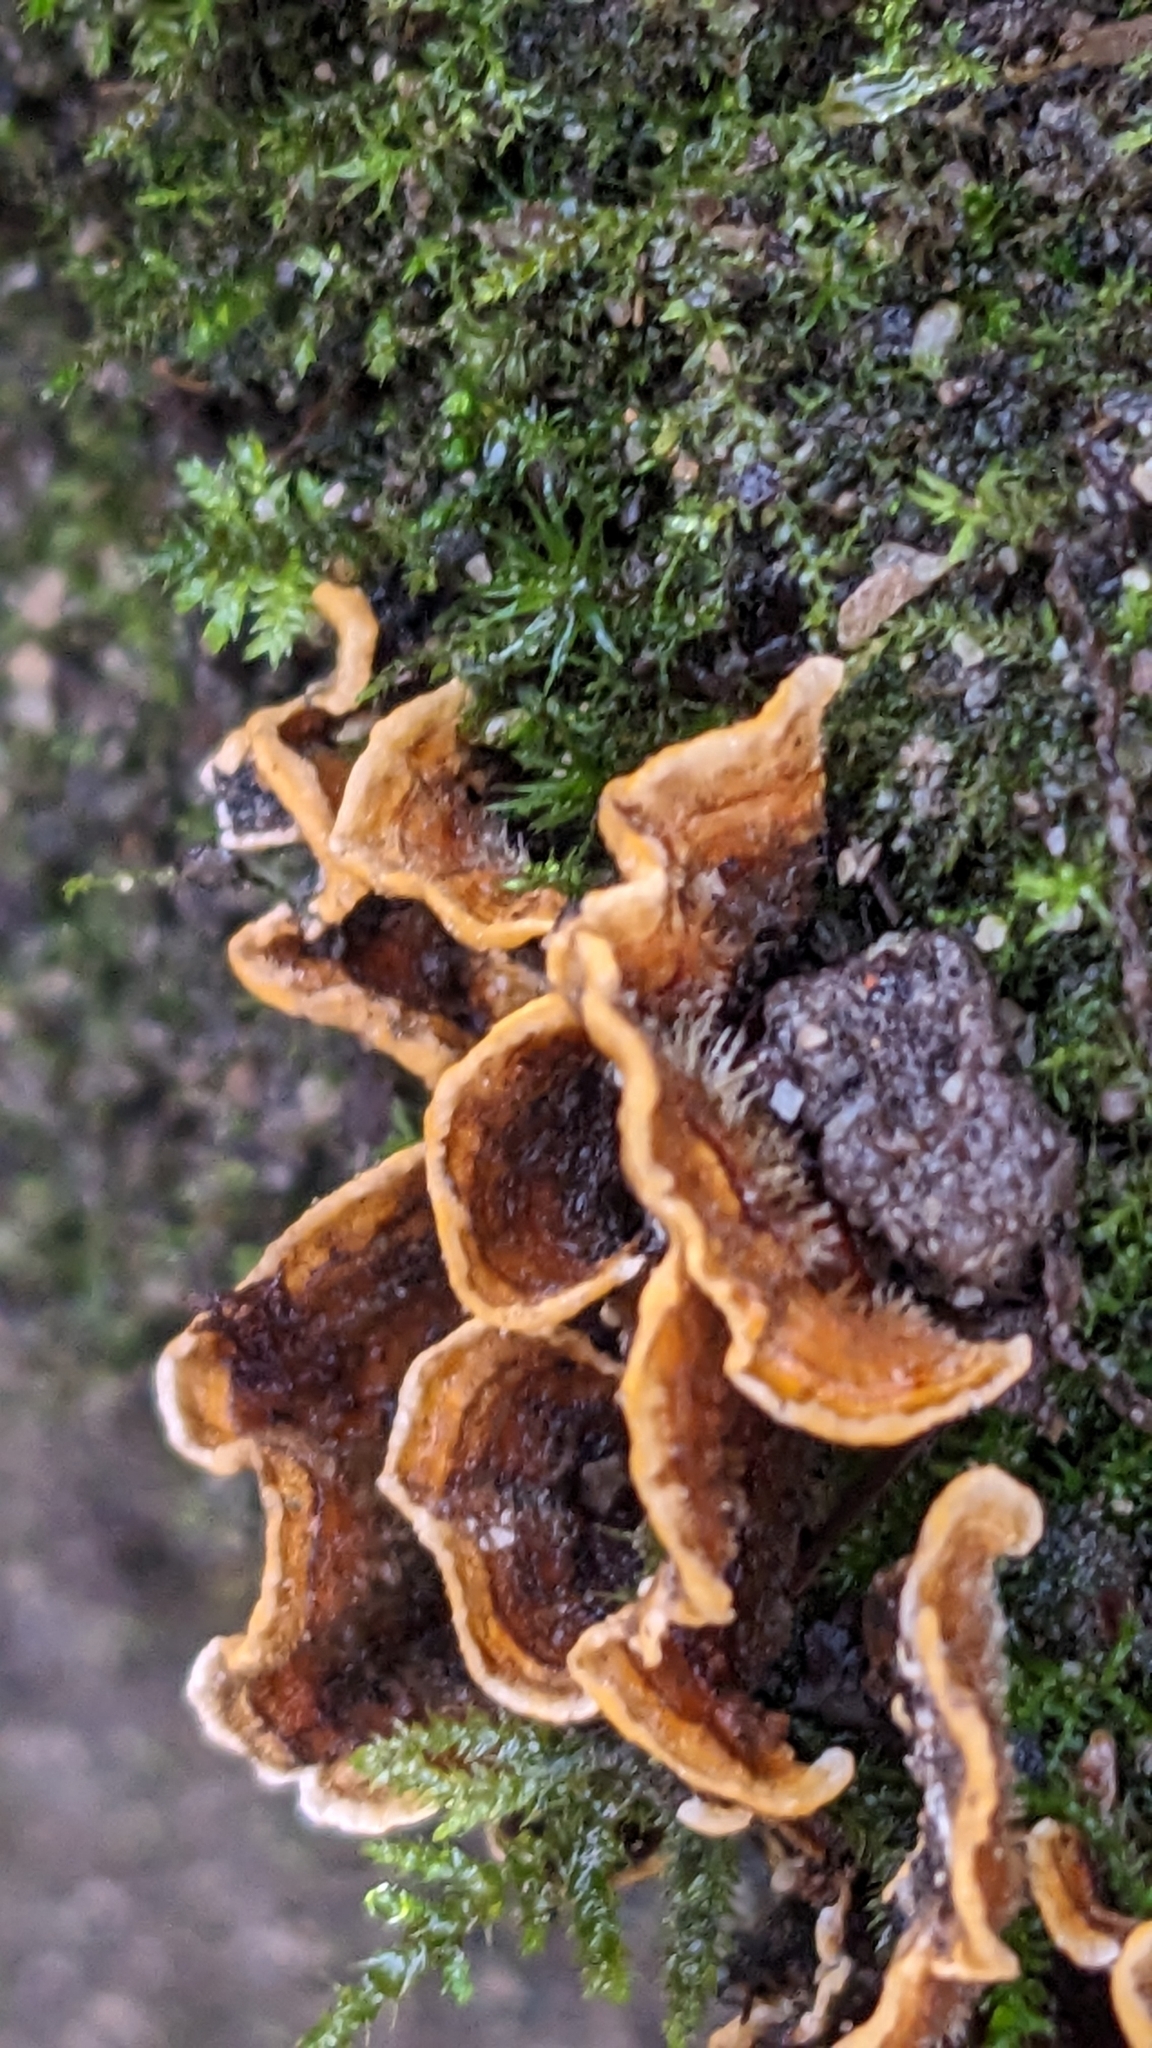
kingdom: Fungi
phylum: Basidiomycota
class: Agaricomycetes
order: Russulales
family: Stereaceae
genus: Stereum
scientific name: Stereum hirsutum
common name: Hairy curtain crust
